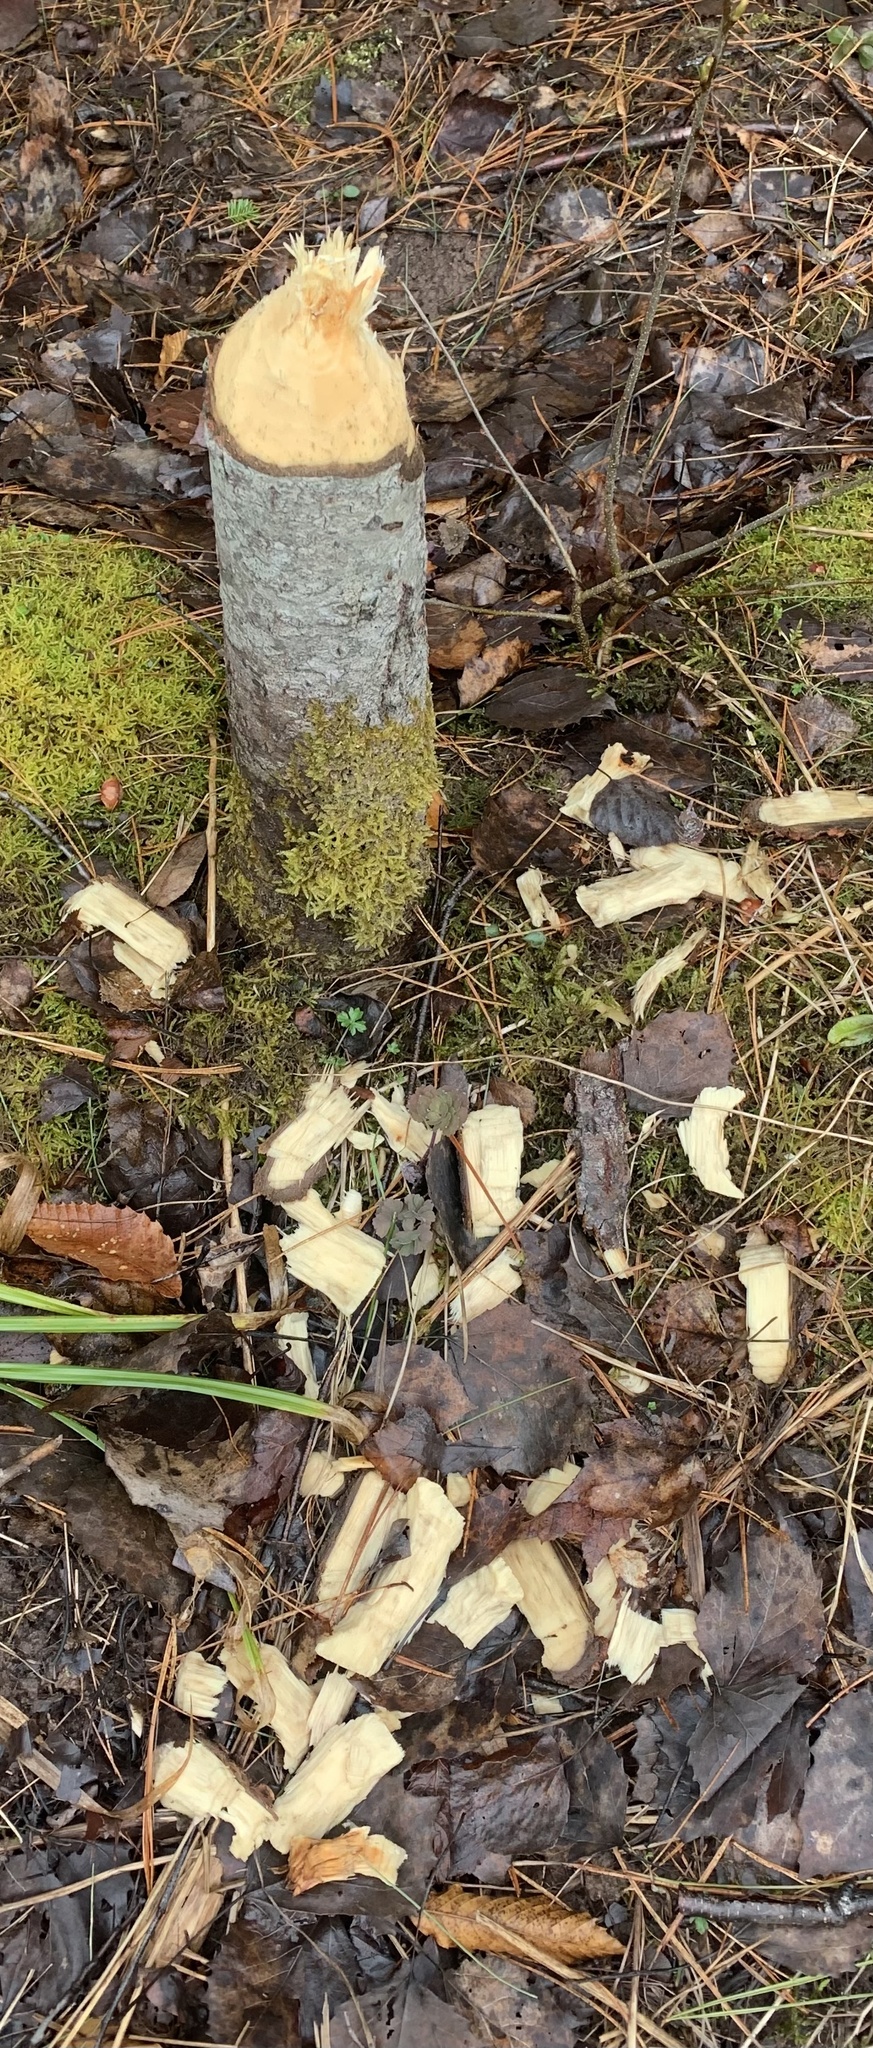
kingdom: Animalia
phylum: Chordata
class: Mammalia
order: Rodentia
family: Castoridae
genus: Castor
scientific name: Castor canadensis
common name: American beaver
